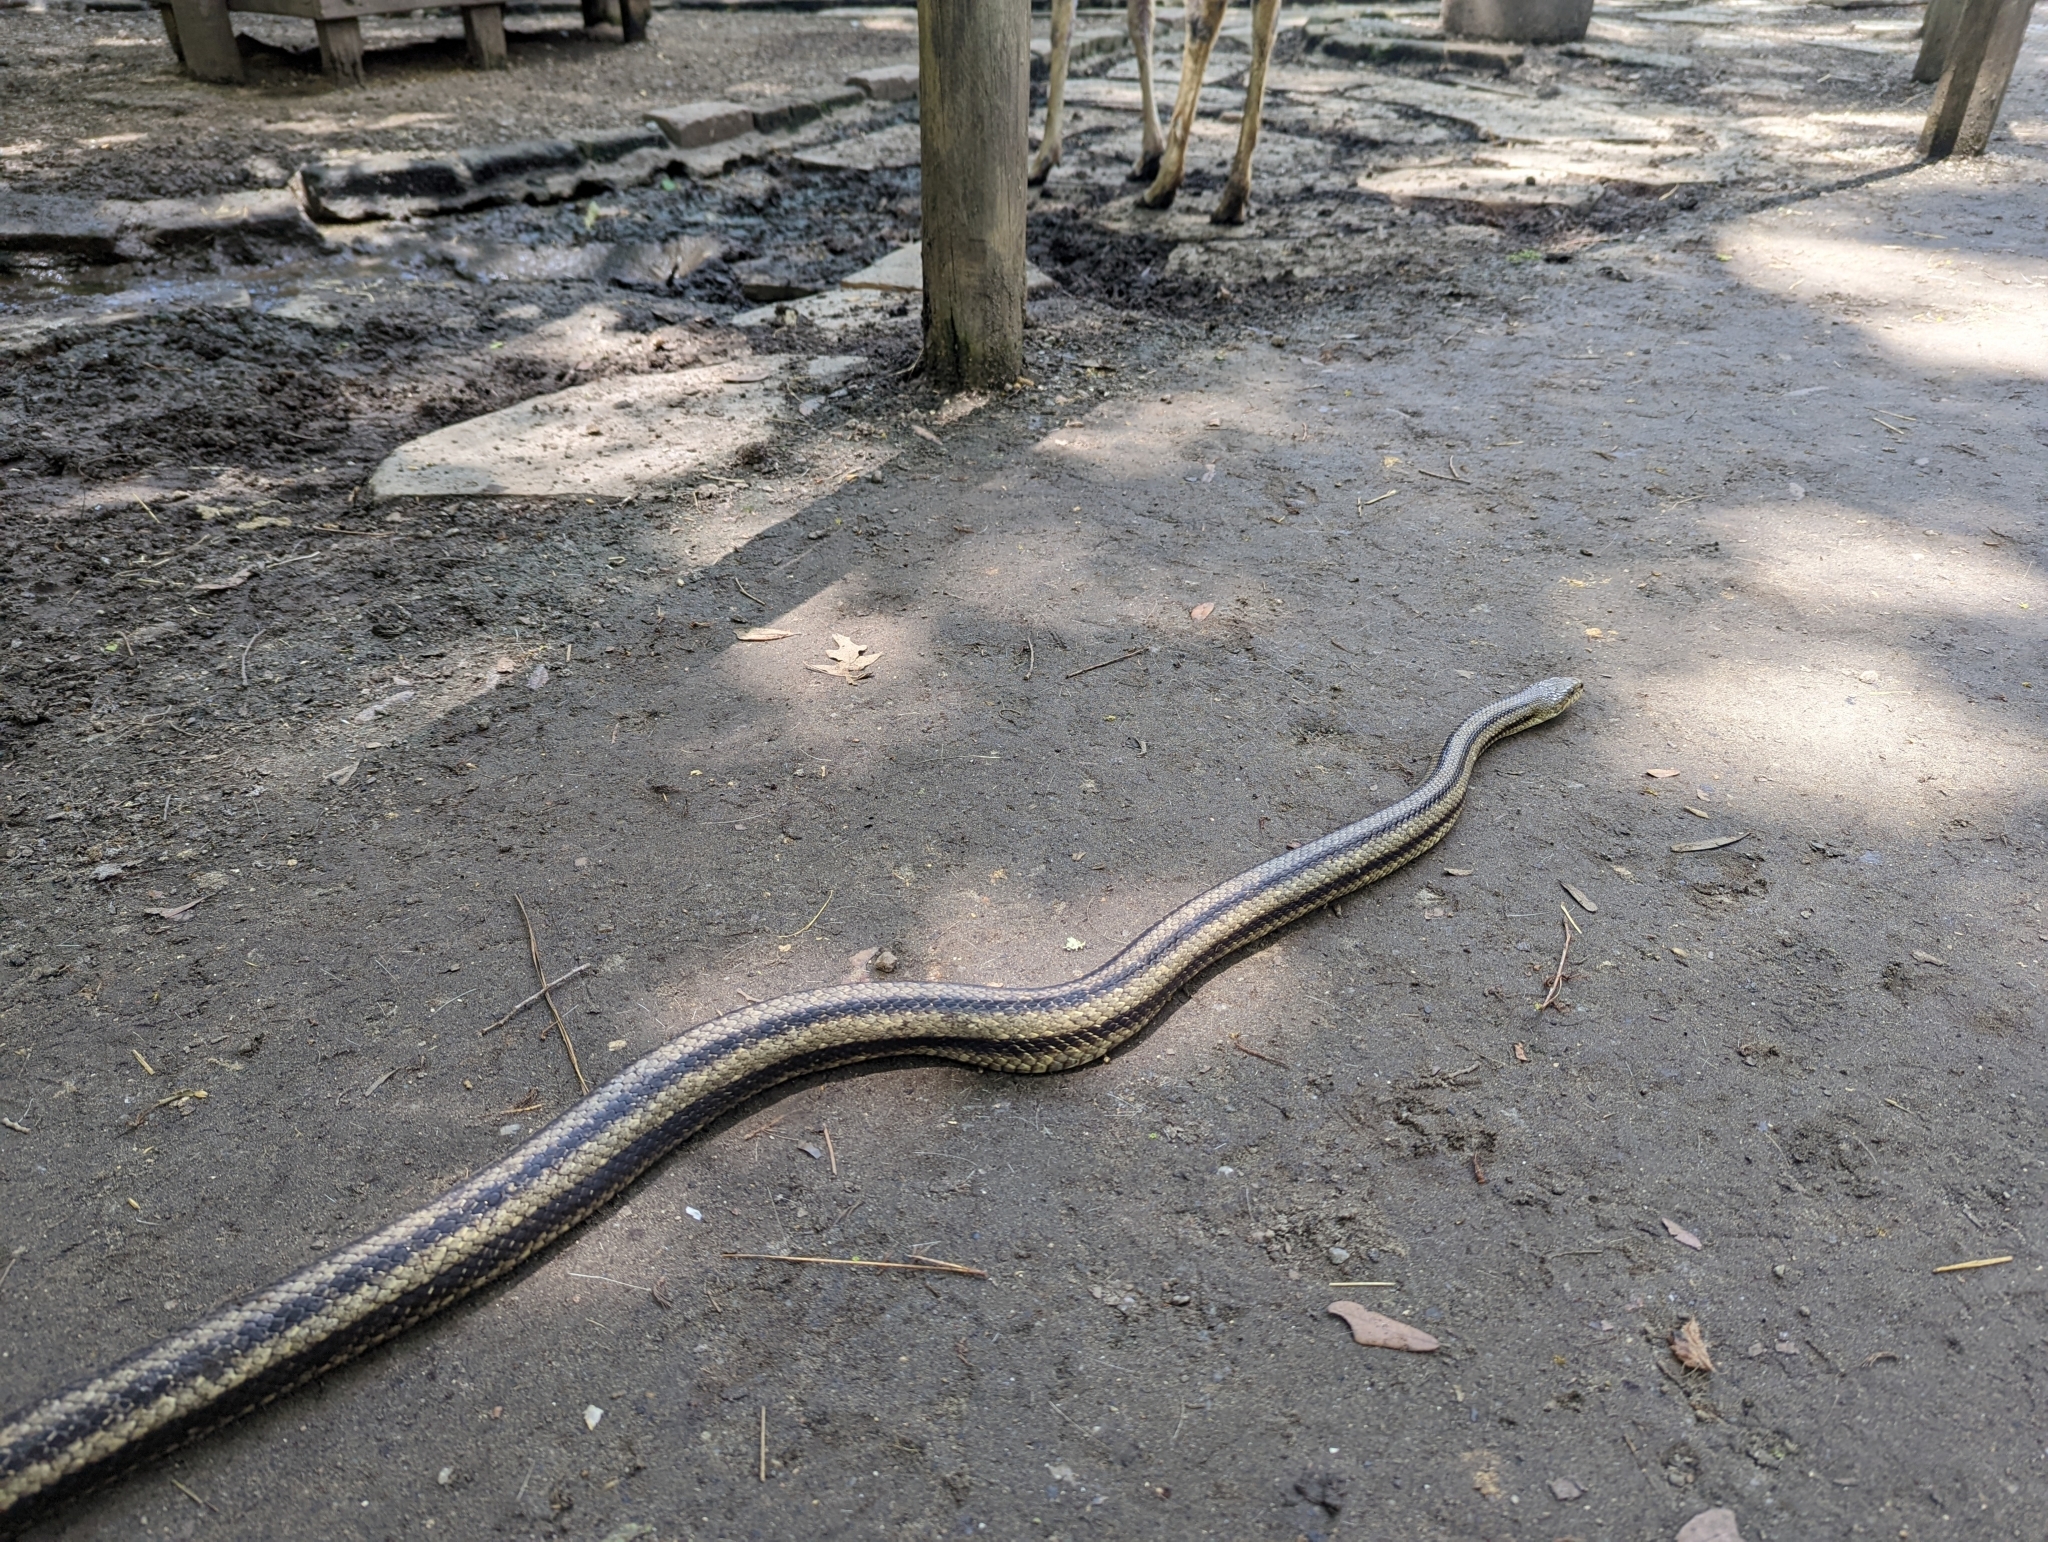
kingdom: Animalia
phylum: Chordata
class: Squamata
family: Colubridae
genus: Pantherophis
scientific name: Pantherophis alleghaniensis
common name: Eastern rat snake
